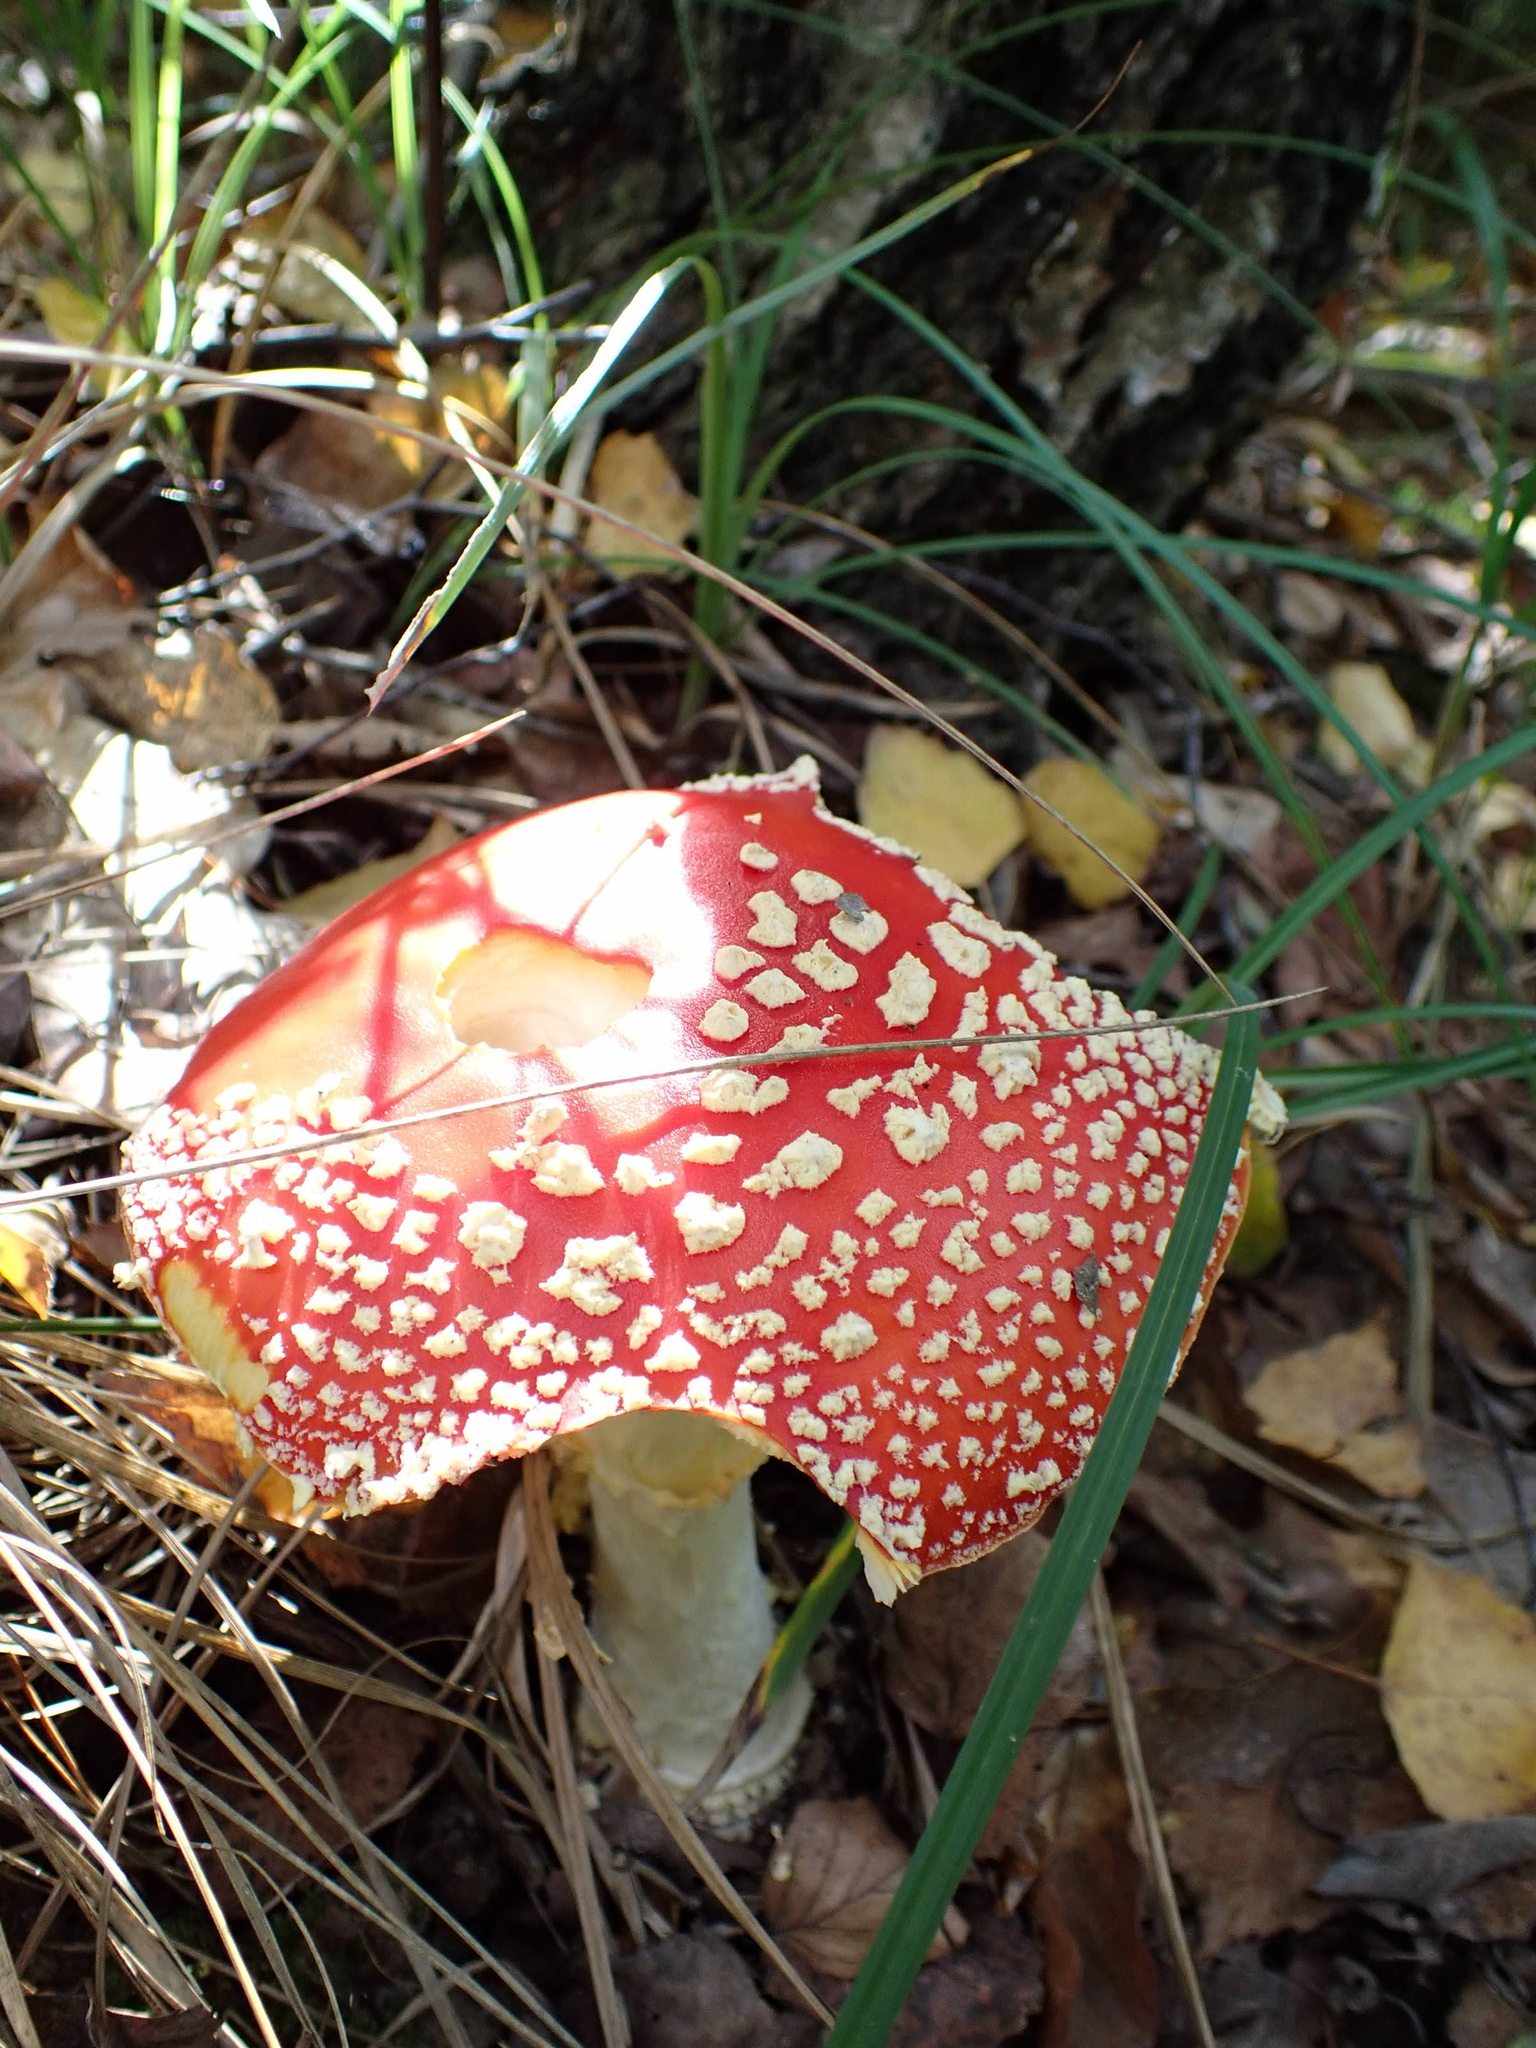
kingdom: Fungi
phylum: Basidiomycota
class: Agaricomycetes
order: Agaricales
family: Amanitaceae
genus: Amanita
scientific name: Amanita muscaria
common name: Fly agaric
